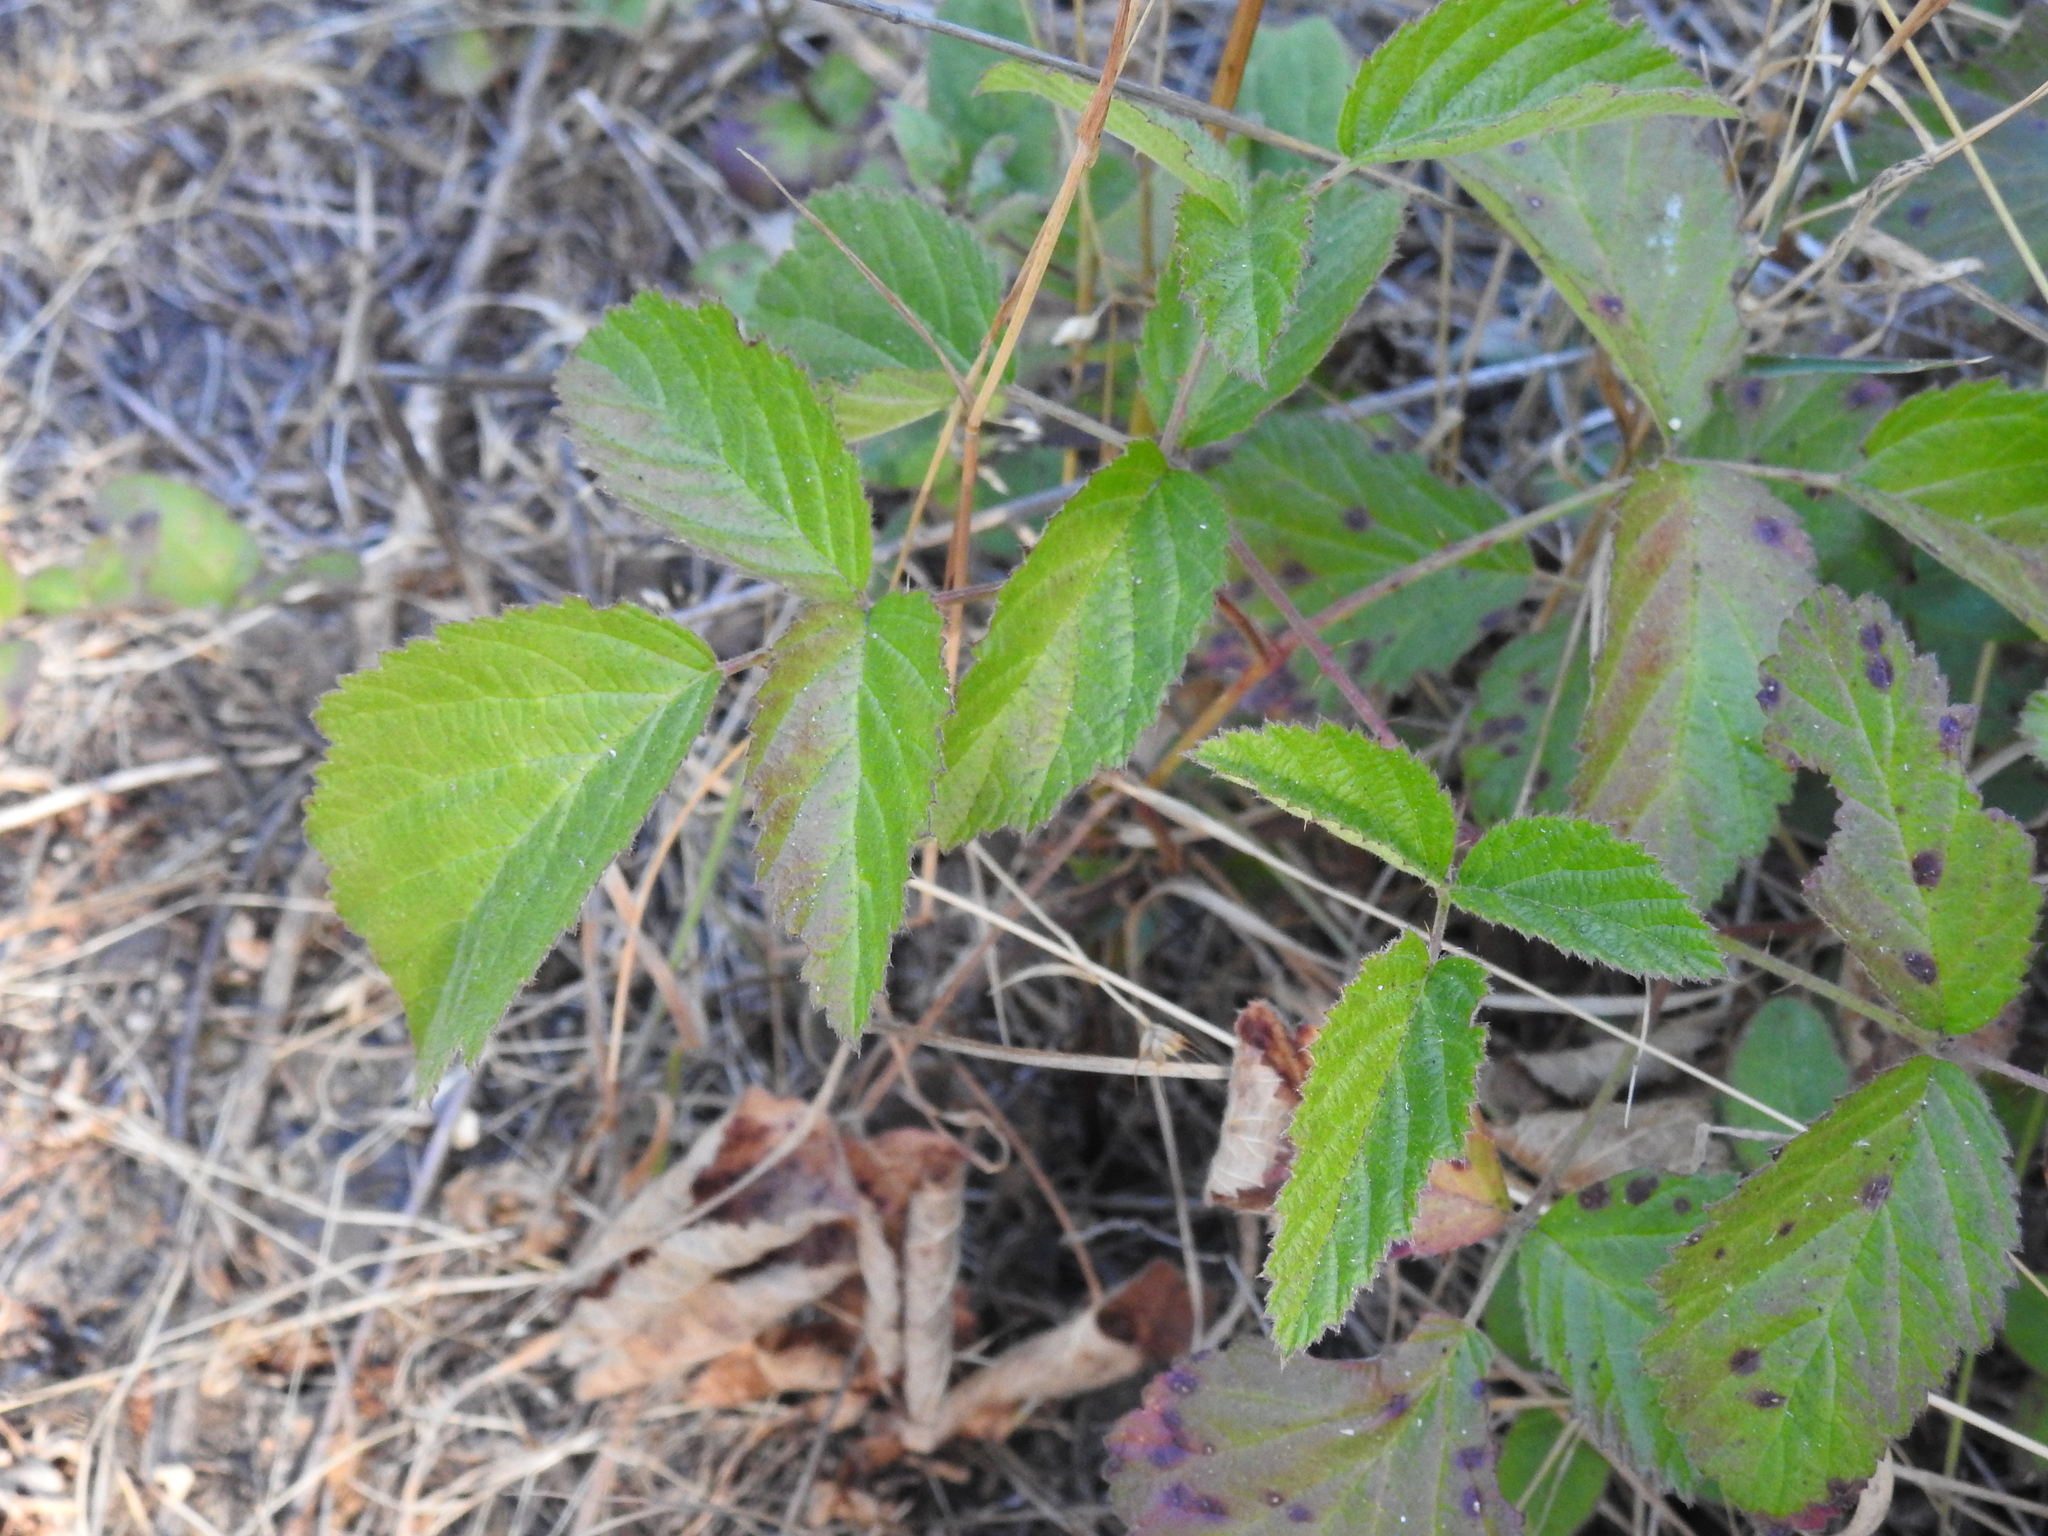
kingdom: Plantae
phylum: Tracheophyta
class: Magnoliopsida
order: Rosales
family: Rosaceae
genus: Rubus
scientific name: Rubus ursinus
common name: Pacific blackberry
